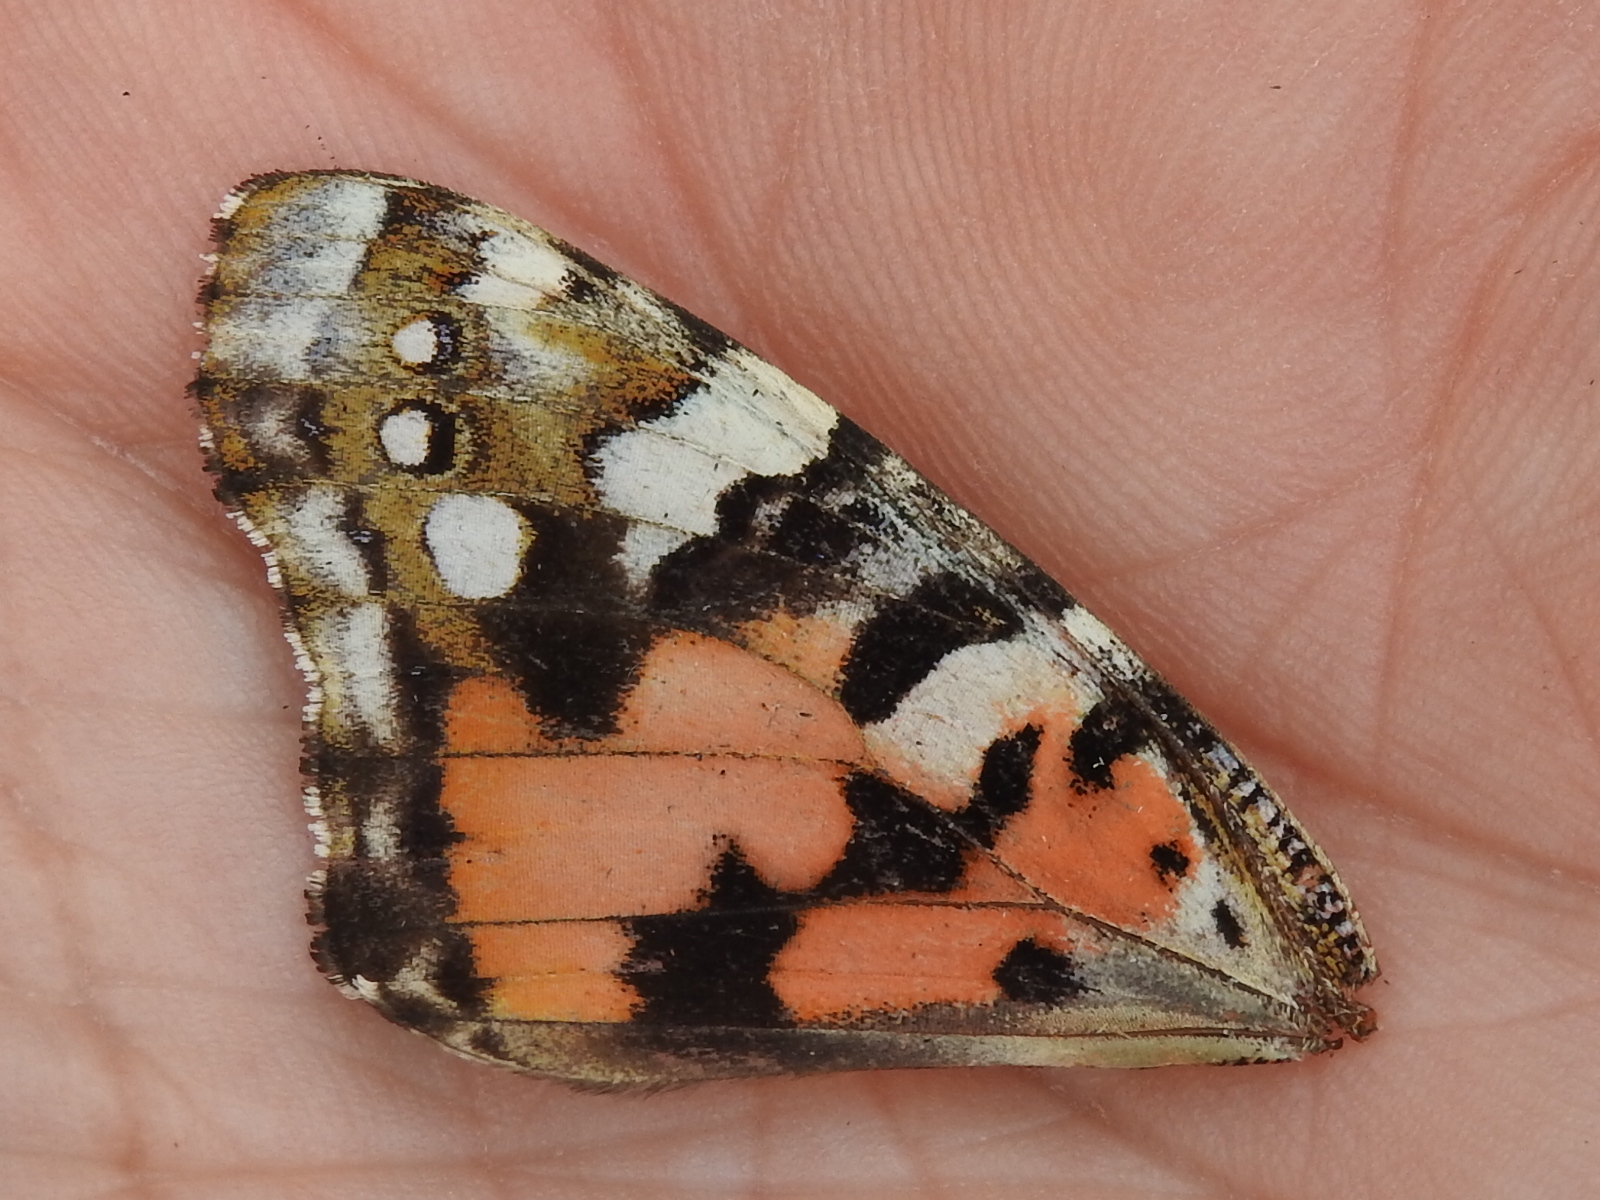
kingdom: Animalia
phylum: Arthropoda
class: Insecta
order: Lepidoptera
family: Nymphalidae
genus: Vanessa
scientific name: Vanessa cardui
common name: Painted lady
